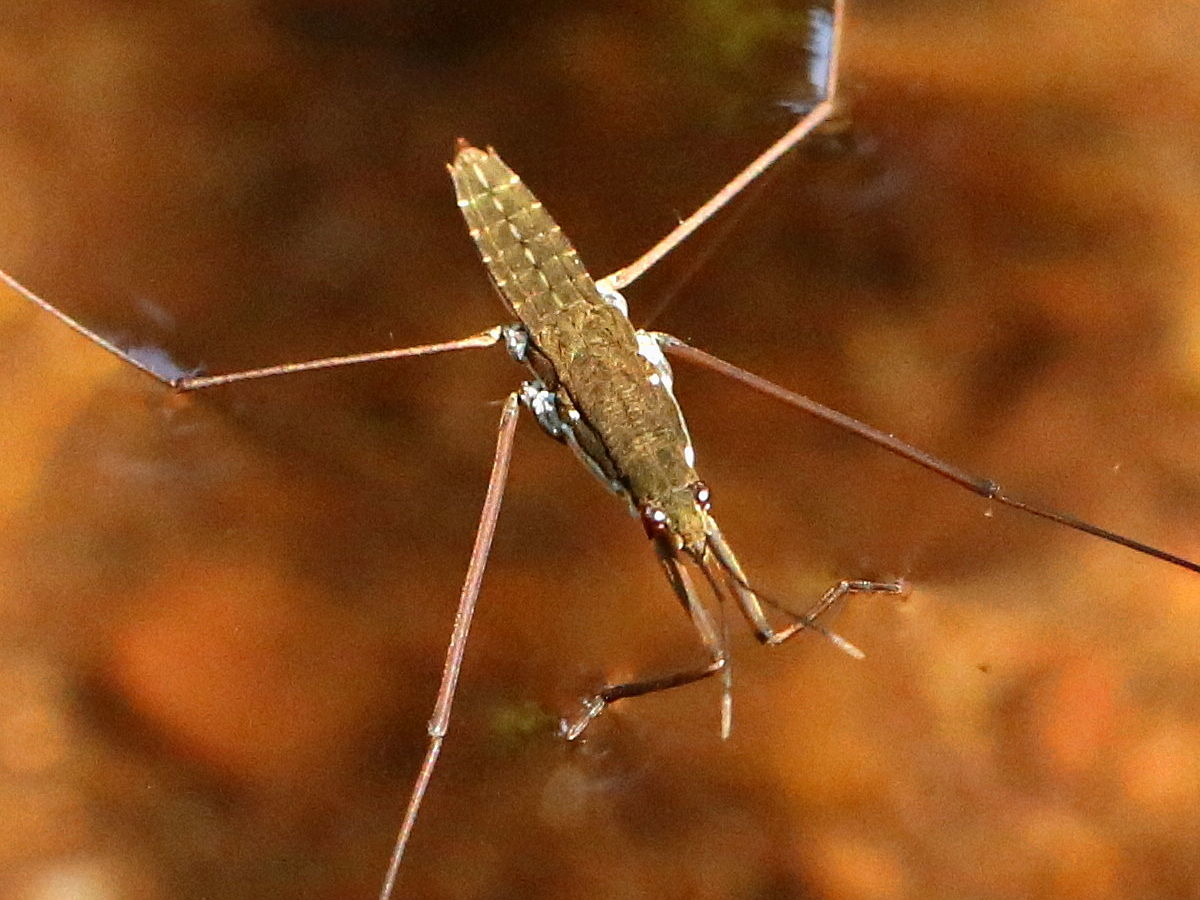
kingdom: Animalia
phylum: Arthropoda
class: Insecta
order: Hemiptera
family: Gerridae
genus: Aquarius
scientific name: Aquarius
